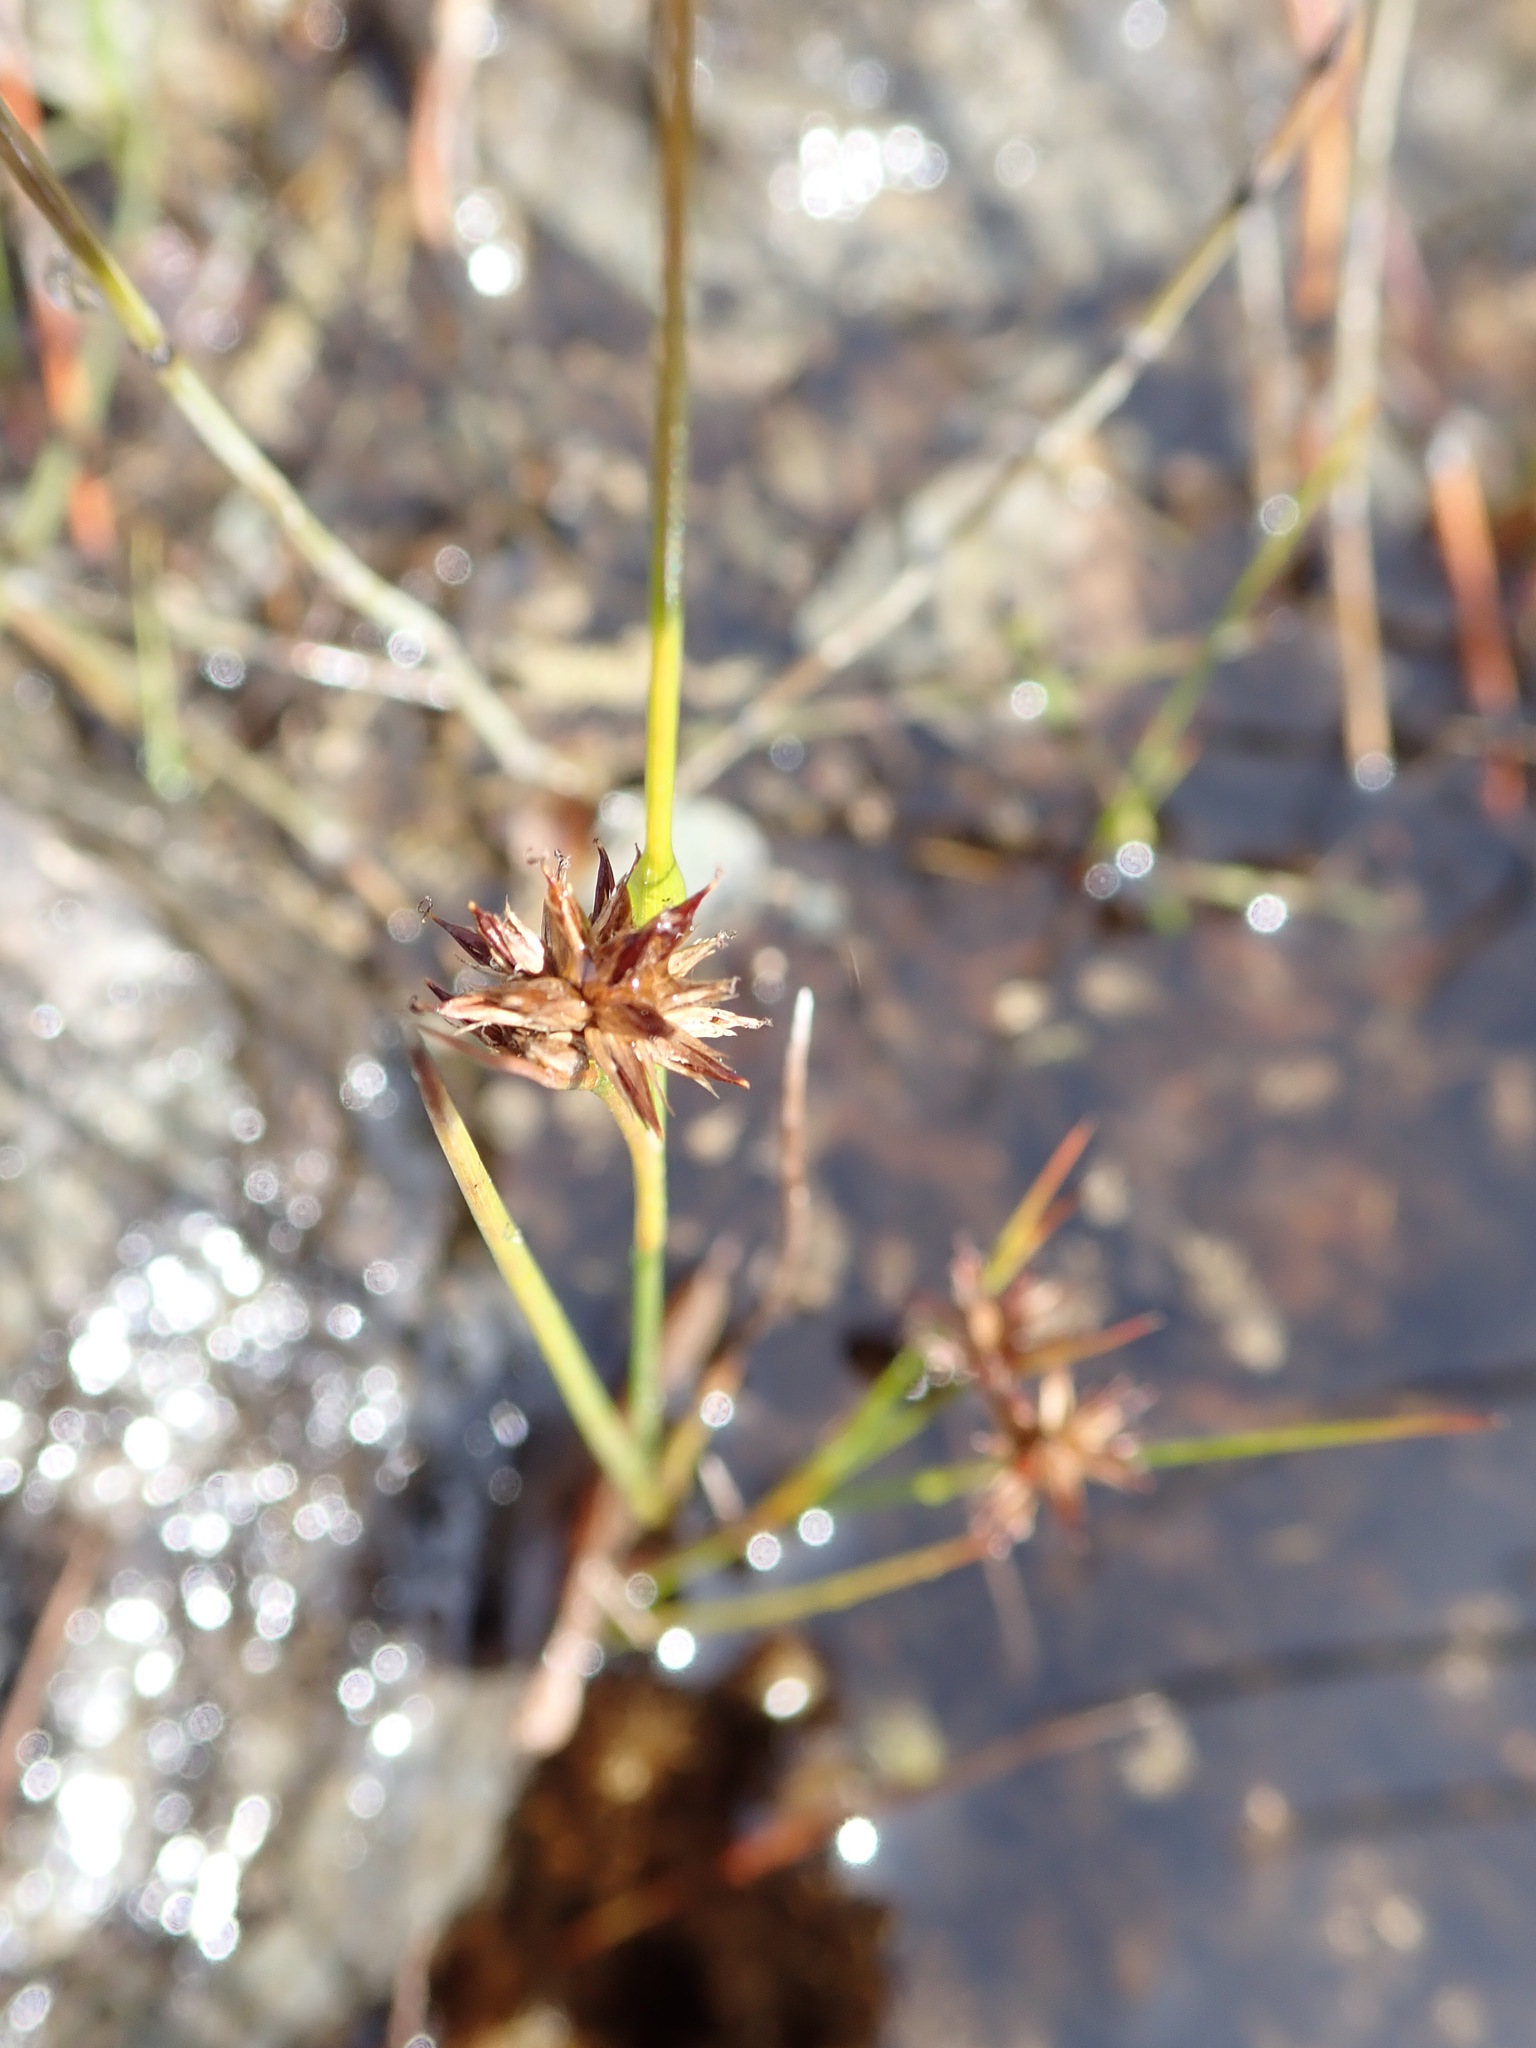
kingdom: Plantae
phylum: Tracheophyta
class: Liliopsida
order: Poales
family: Juncaceae
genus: Juncus
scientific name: Juncus nodosus
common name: Knotted rush
